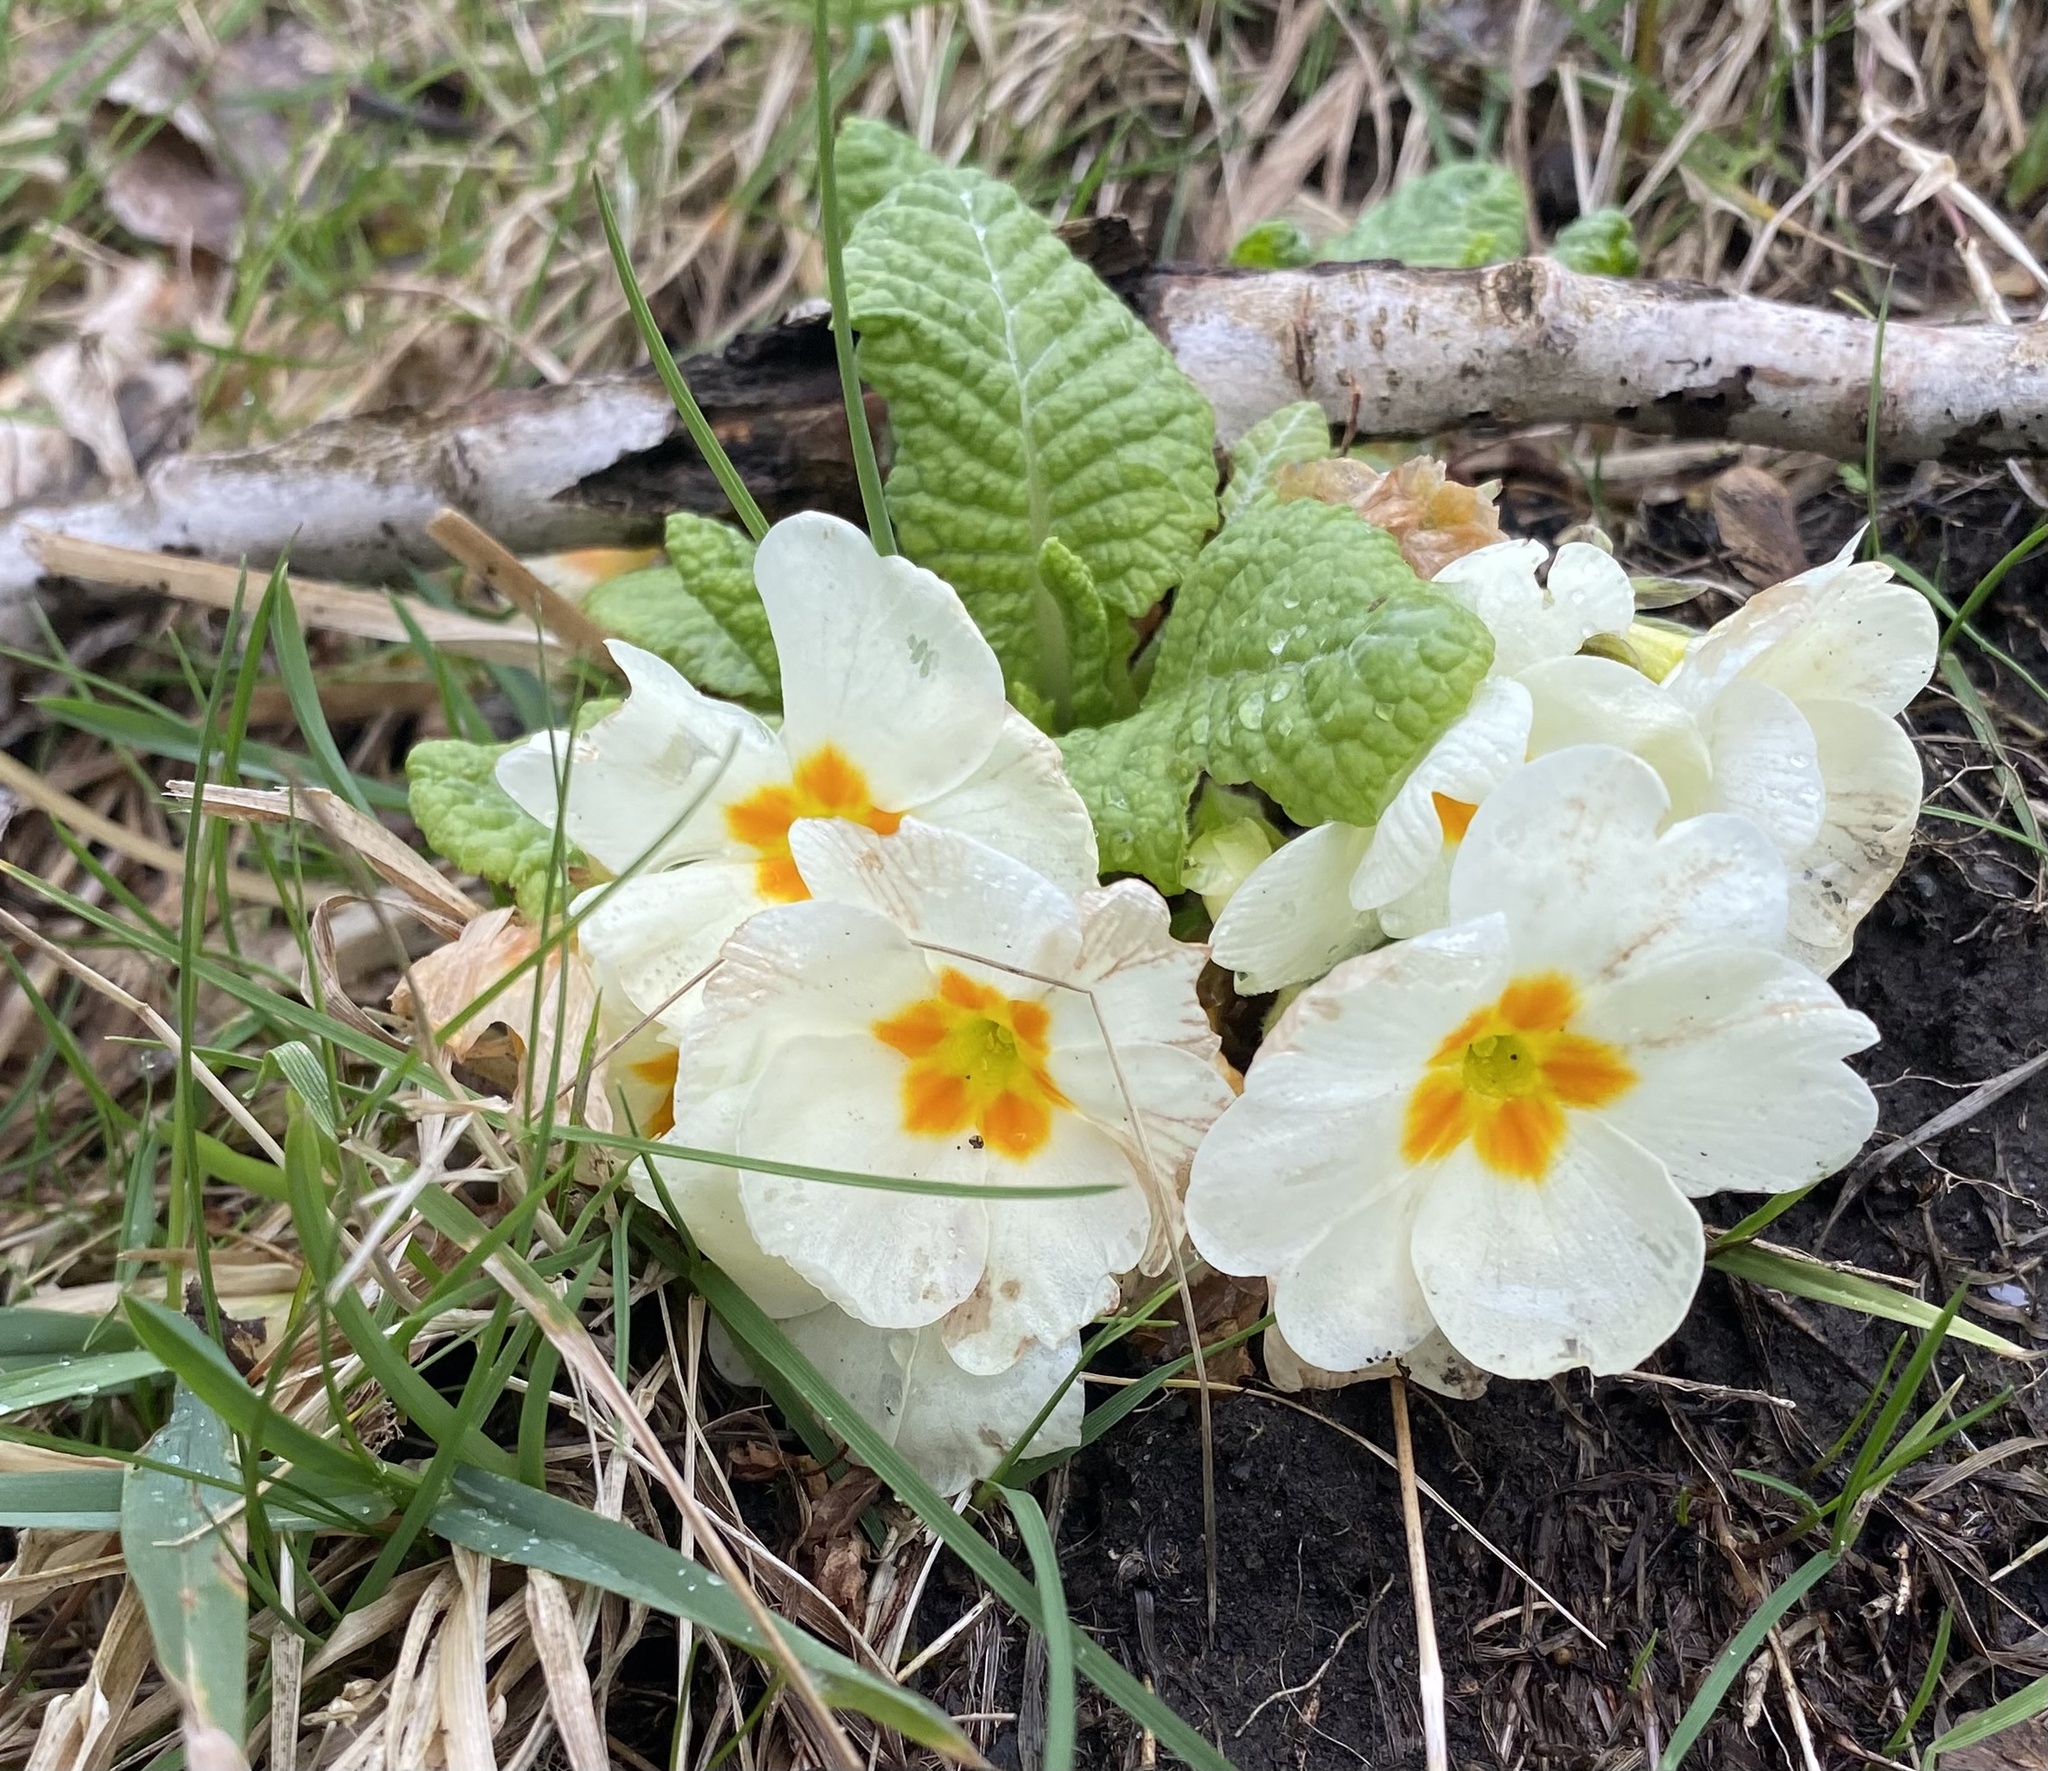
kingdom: Plantae
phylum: Tracheophyta
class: Magnoliopsida
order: Ericales
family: Primulaceae
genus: Primula
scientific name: Primula vulgaris
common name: Primrose
